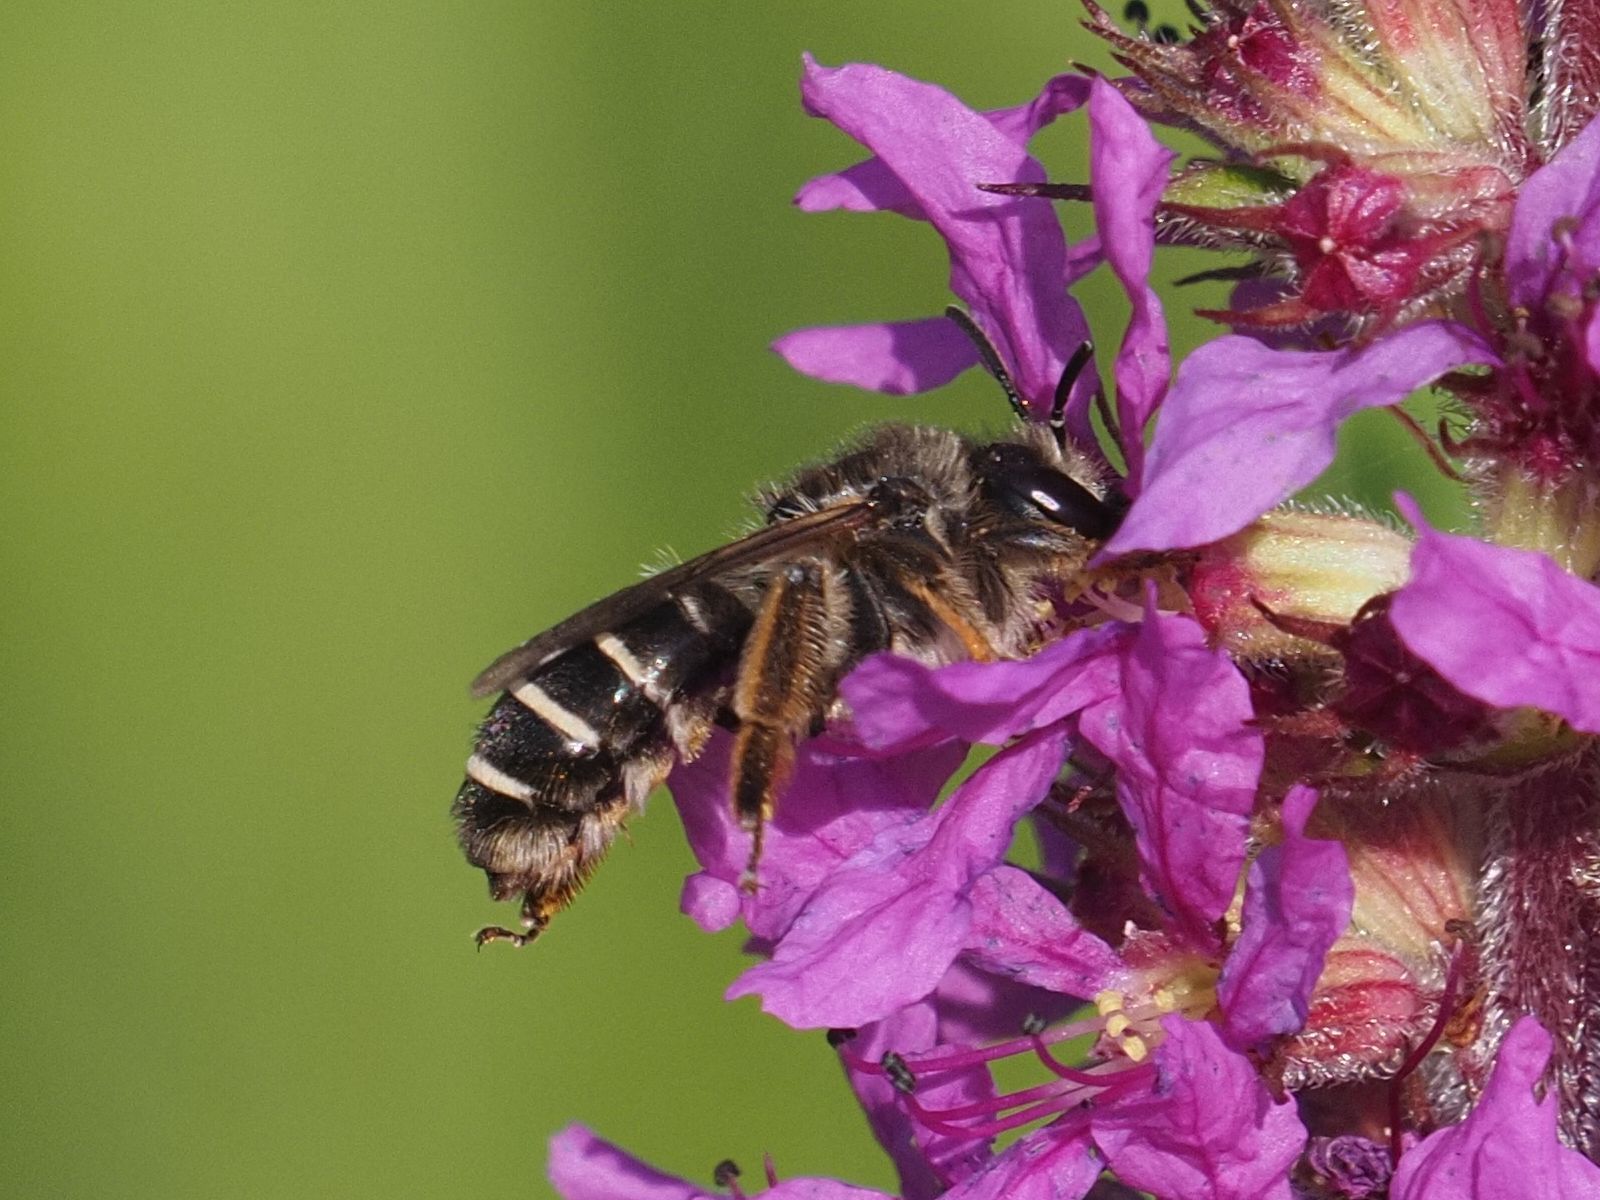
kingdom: Animalia
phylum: Arthropoda
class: Insecta
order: Hymenoptera
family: Melittidae
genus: Melitta
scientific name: Melitta nigricans
